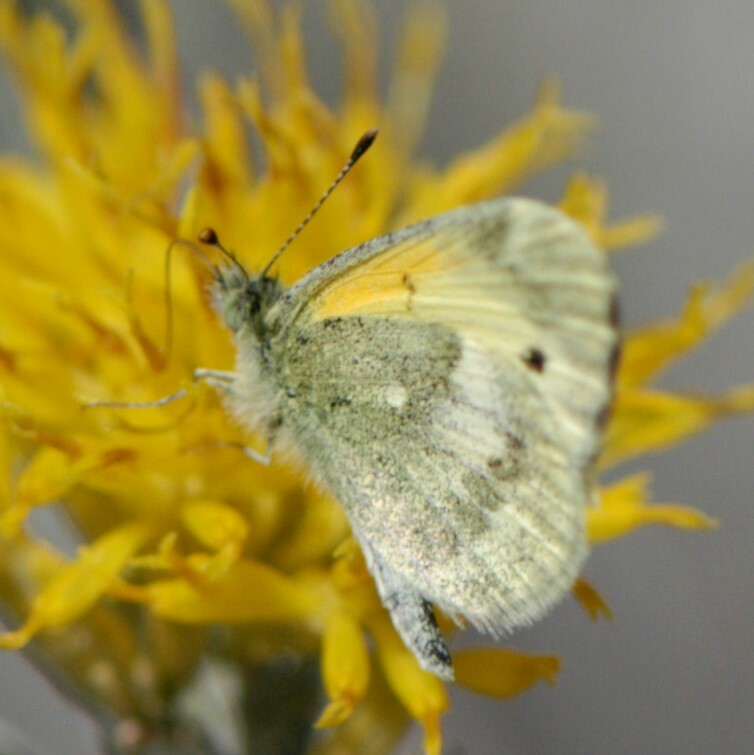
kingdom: Animalia
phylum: Arthropoda
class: Insecta
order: Lepidoptera
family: Pieridae
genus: Nathalis
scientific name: Nathalis iole
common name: Dainty sulphur
